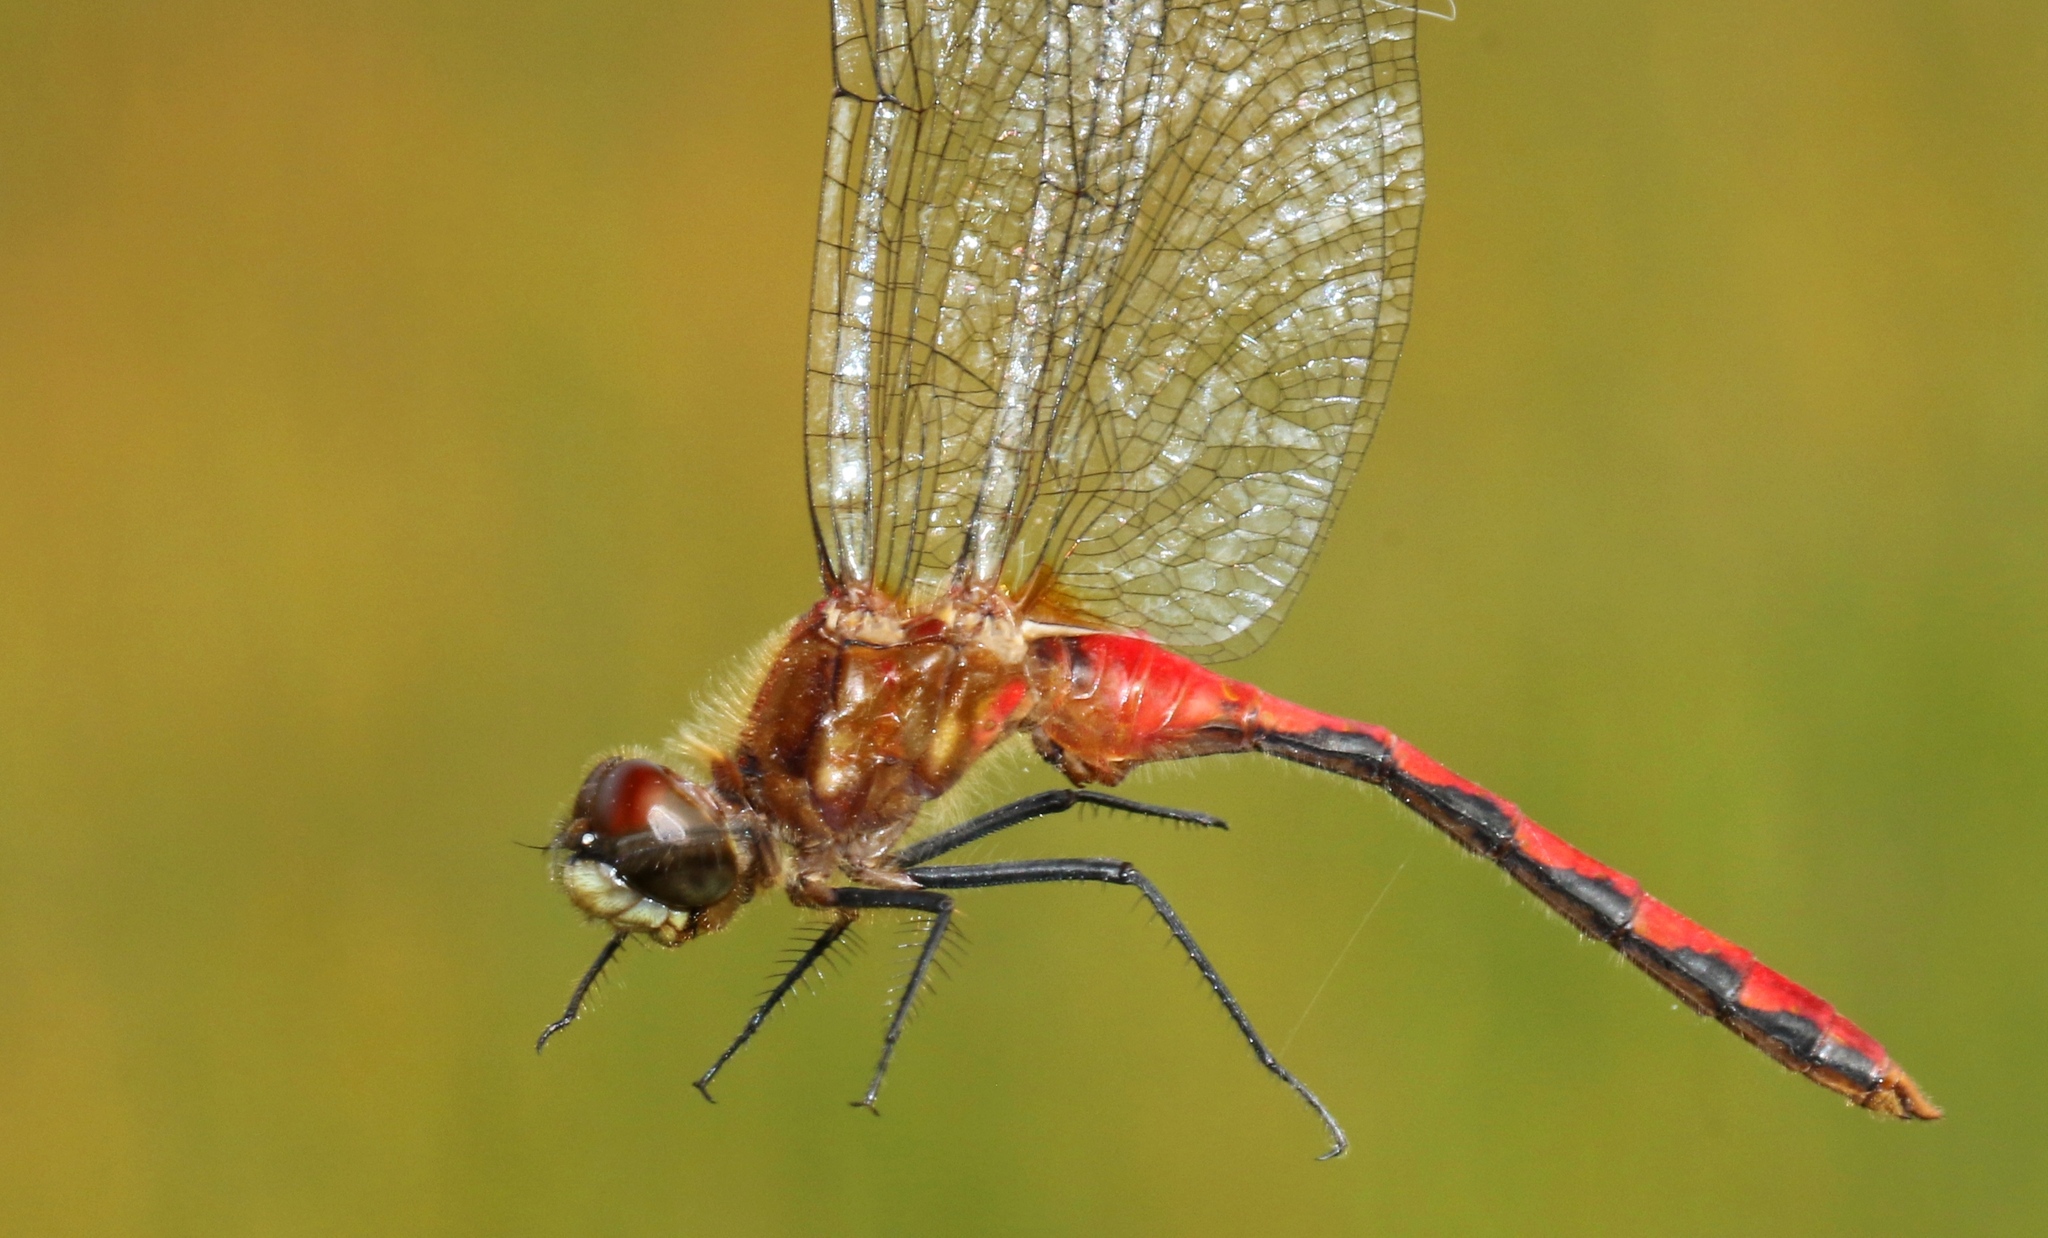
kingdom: Animalia
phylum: Arthropoda
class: Insecta
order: Odonata
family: Libellulidae
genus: Sympetrum
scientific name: Sympetrum obtrusum
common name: White-faced meadowhawk
